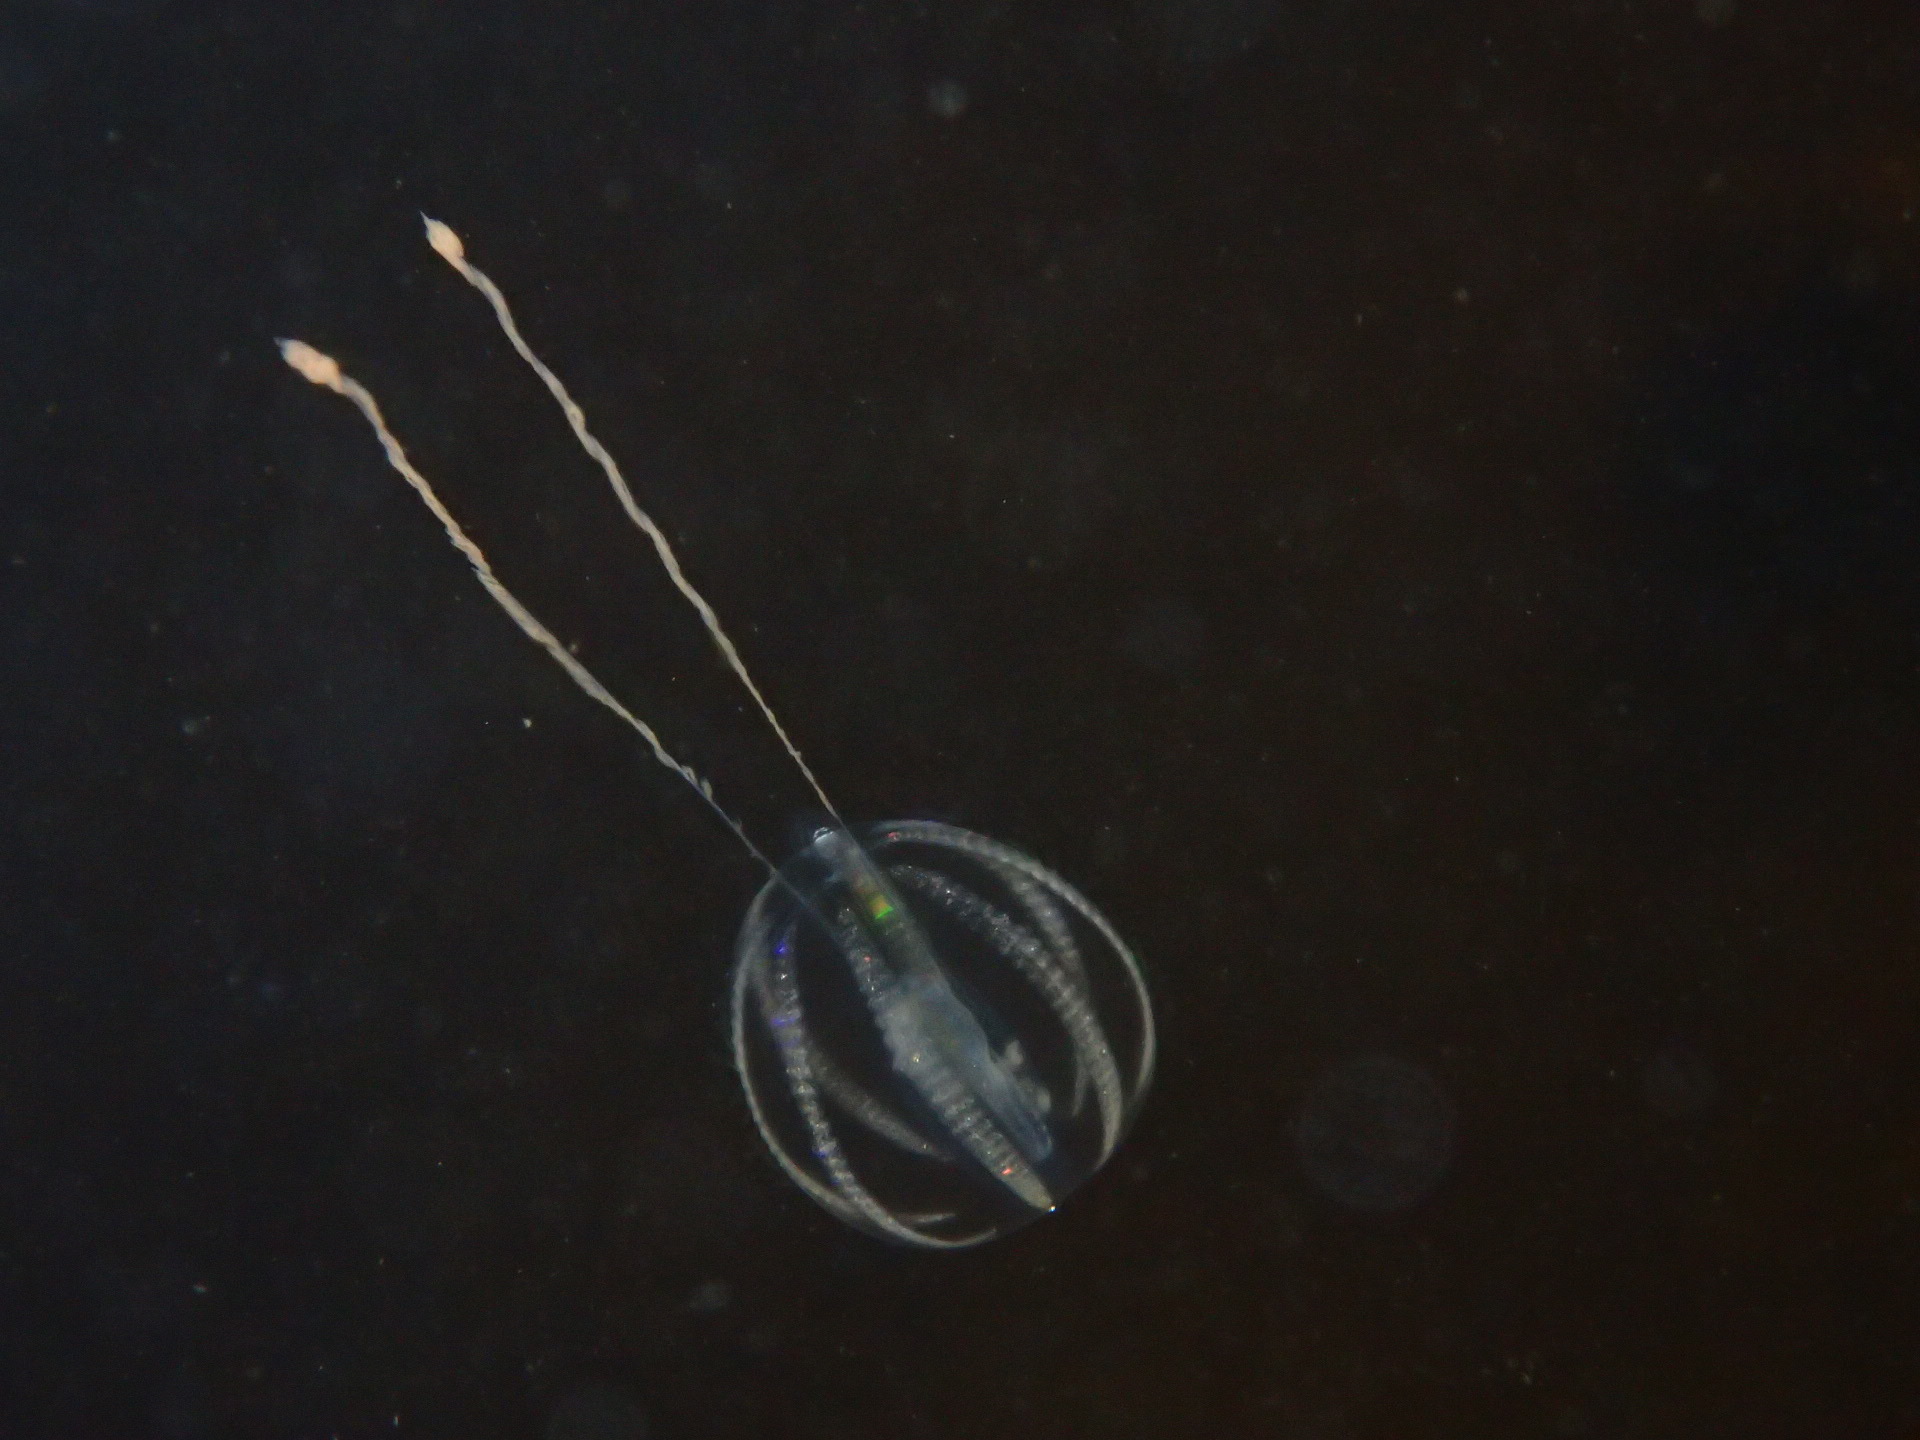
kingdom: Animalia
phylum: Ctenophora
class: Tentaculata
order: Cydippida
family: Pleurobrachiidae
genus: Pleurobrachia
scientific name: Pleurobrachia pileus
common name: Sea gooseberry
